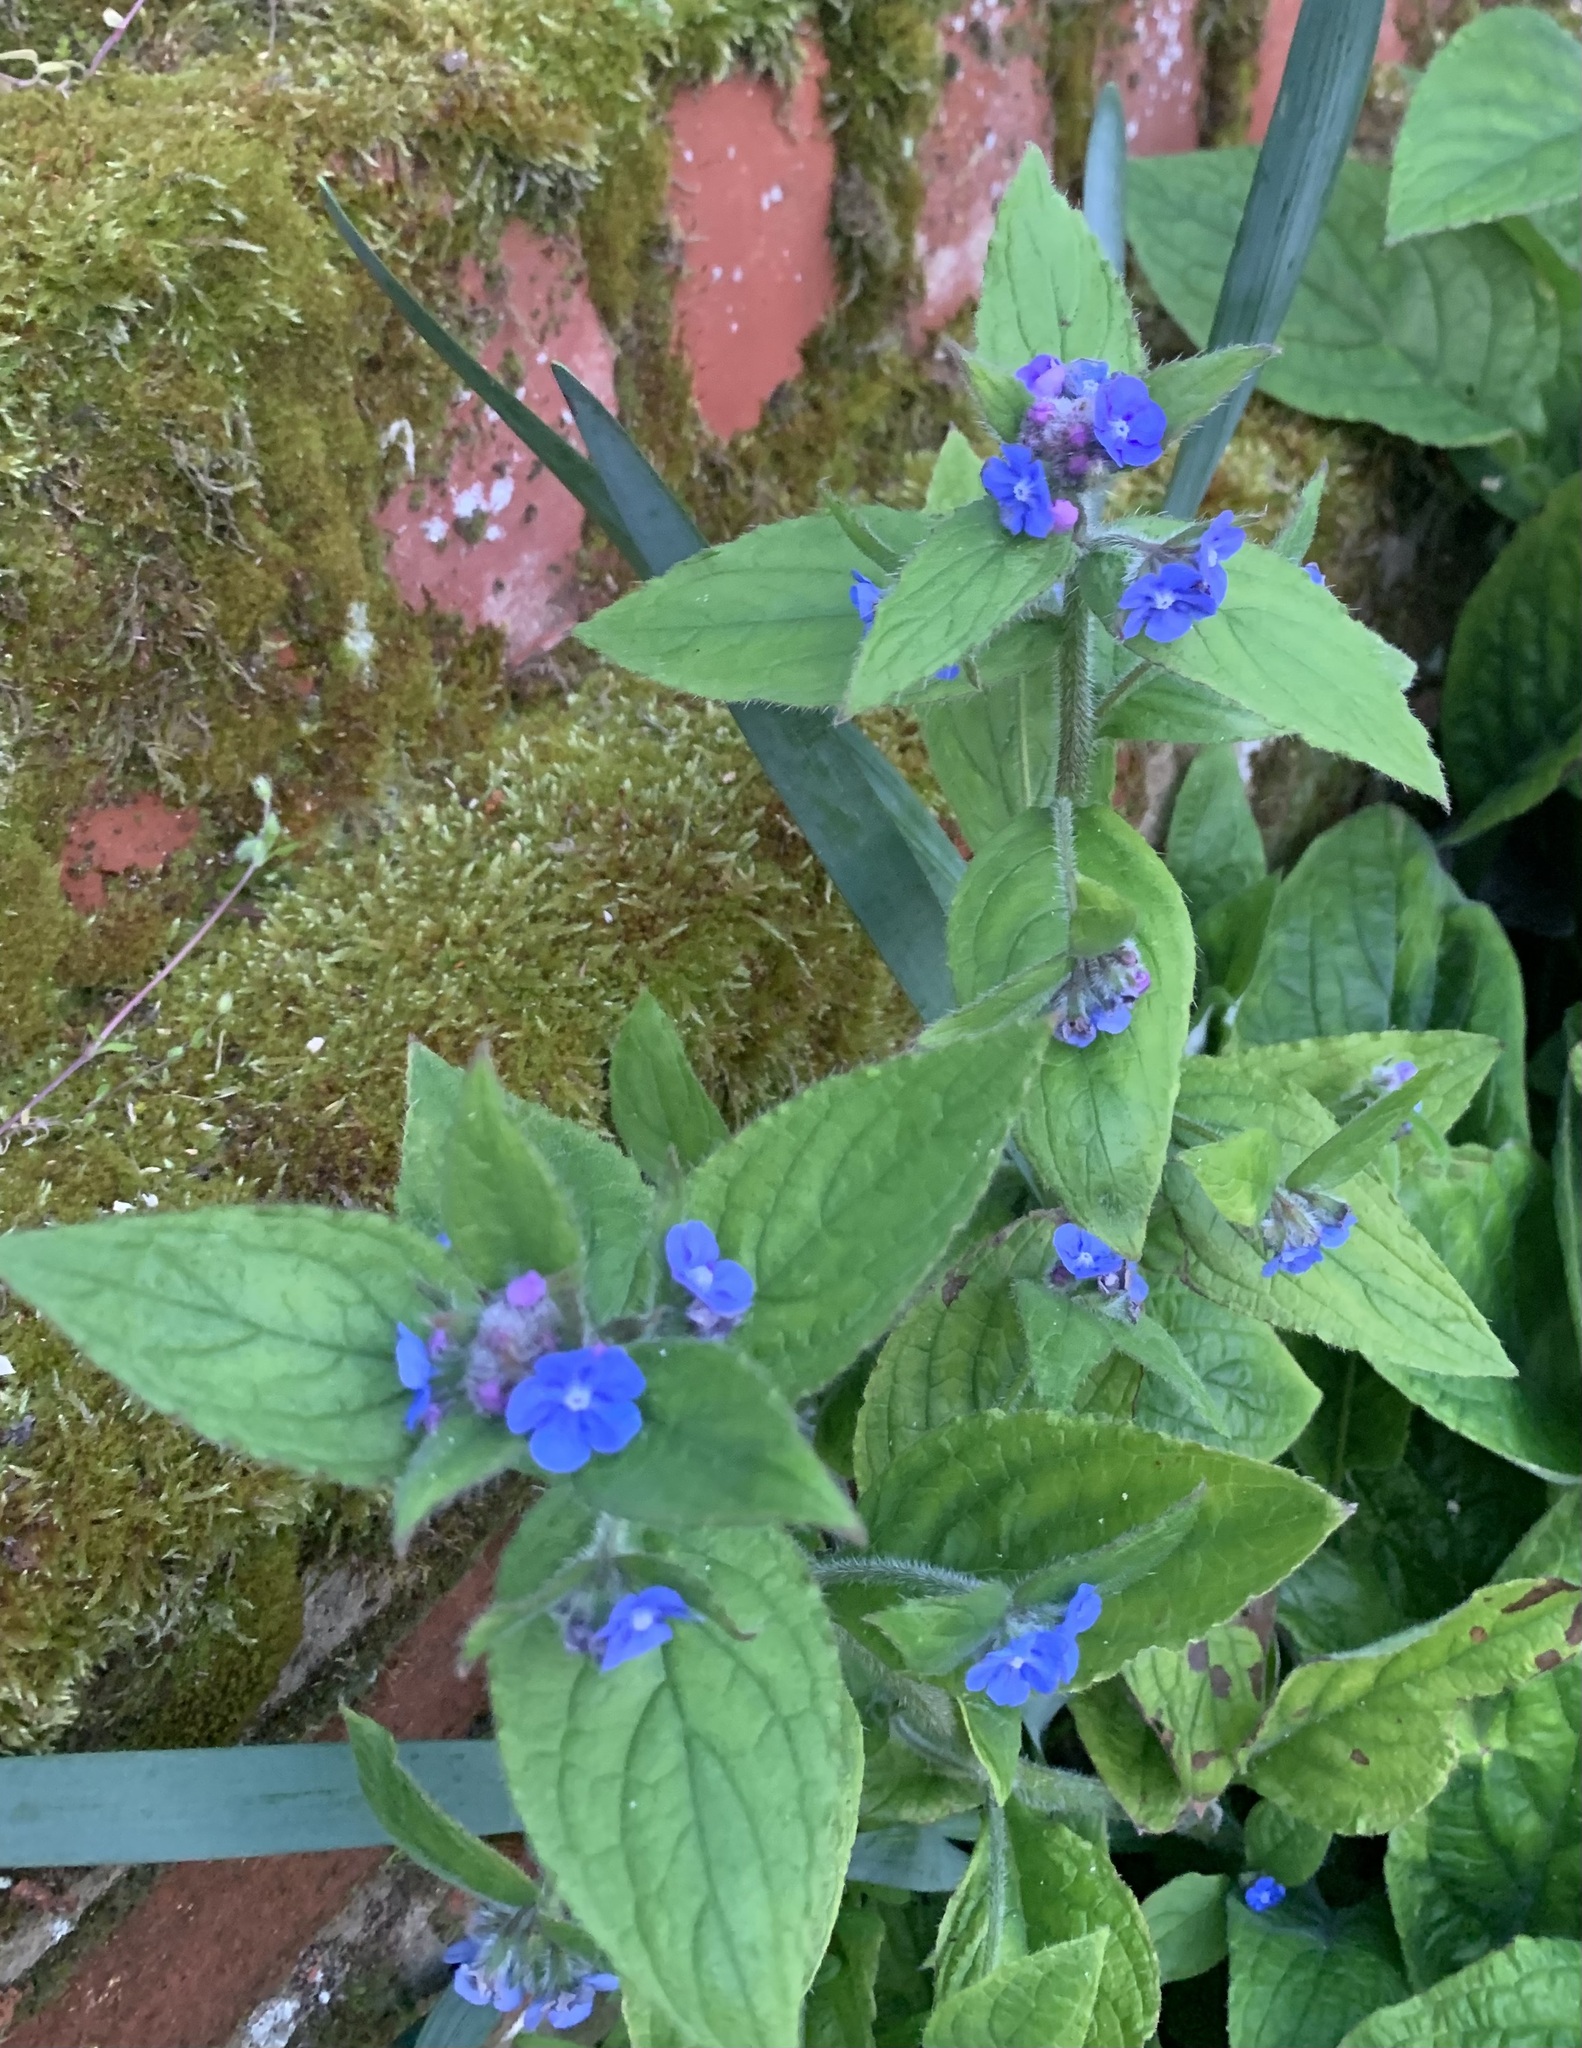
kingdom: Plantae
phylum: Tracheophyta
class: Magnoliopsida
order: Boraginales
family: Boraginaceae
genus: Pentaglottis
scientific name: Pentaglottis sempervirens
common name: Green alkanet
